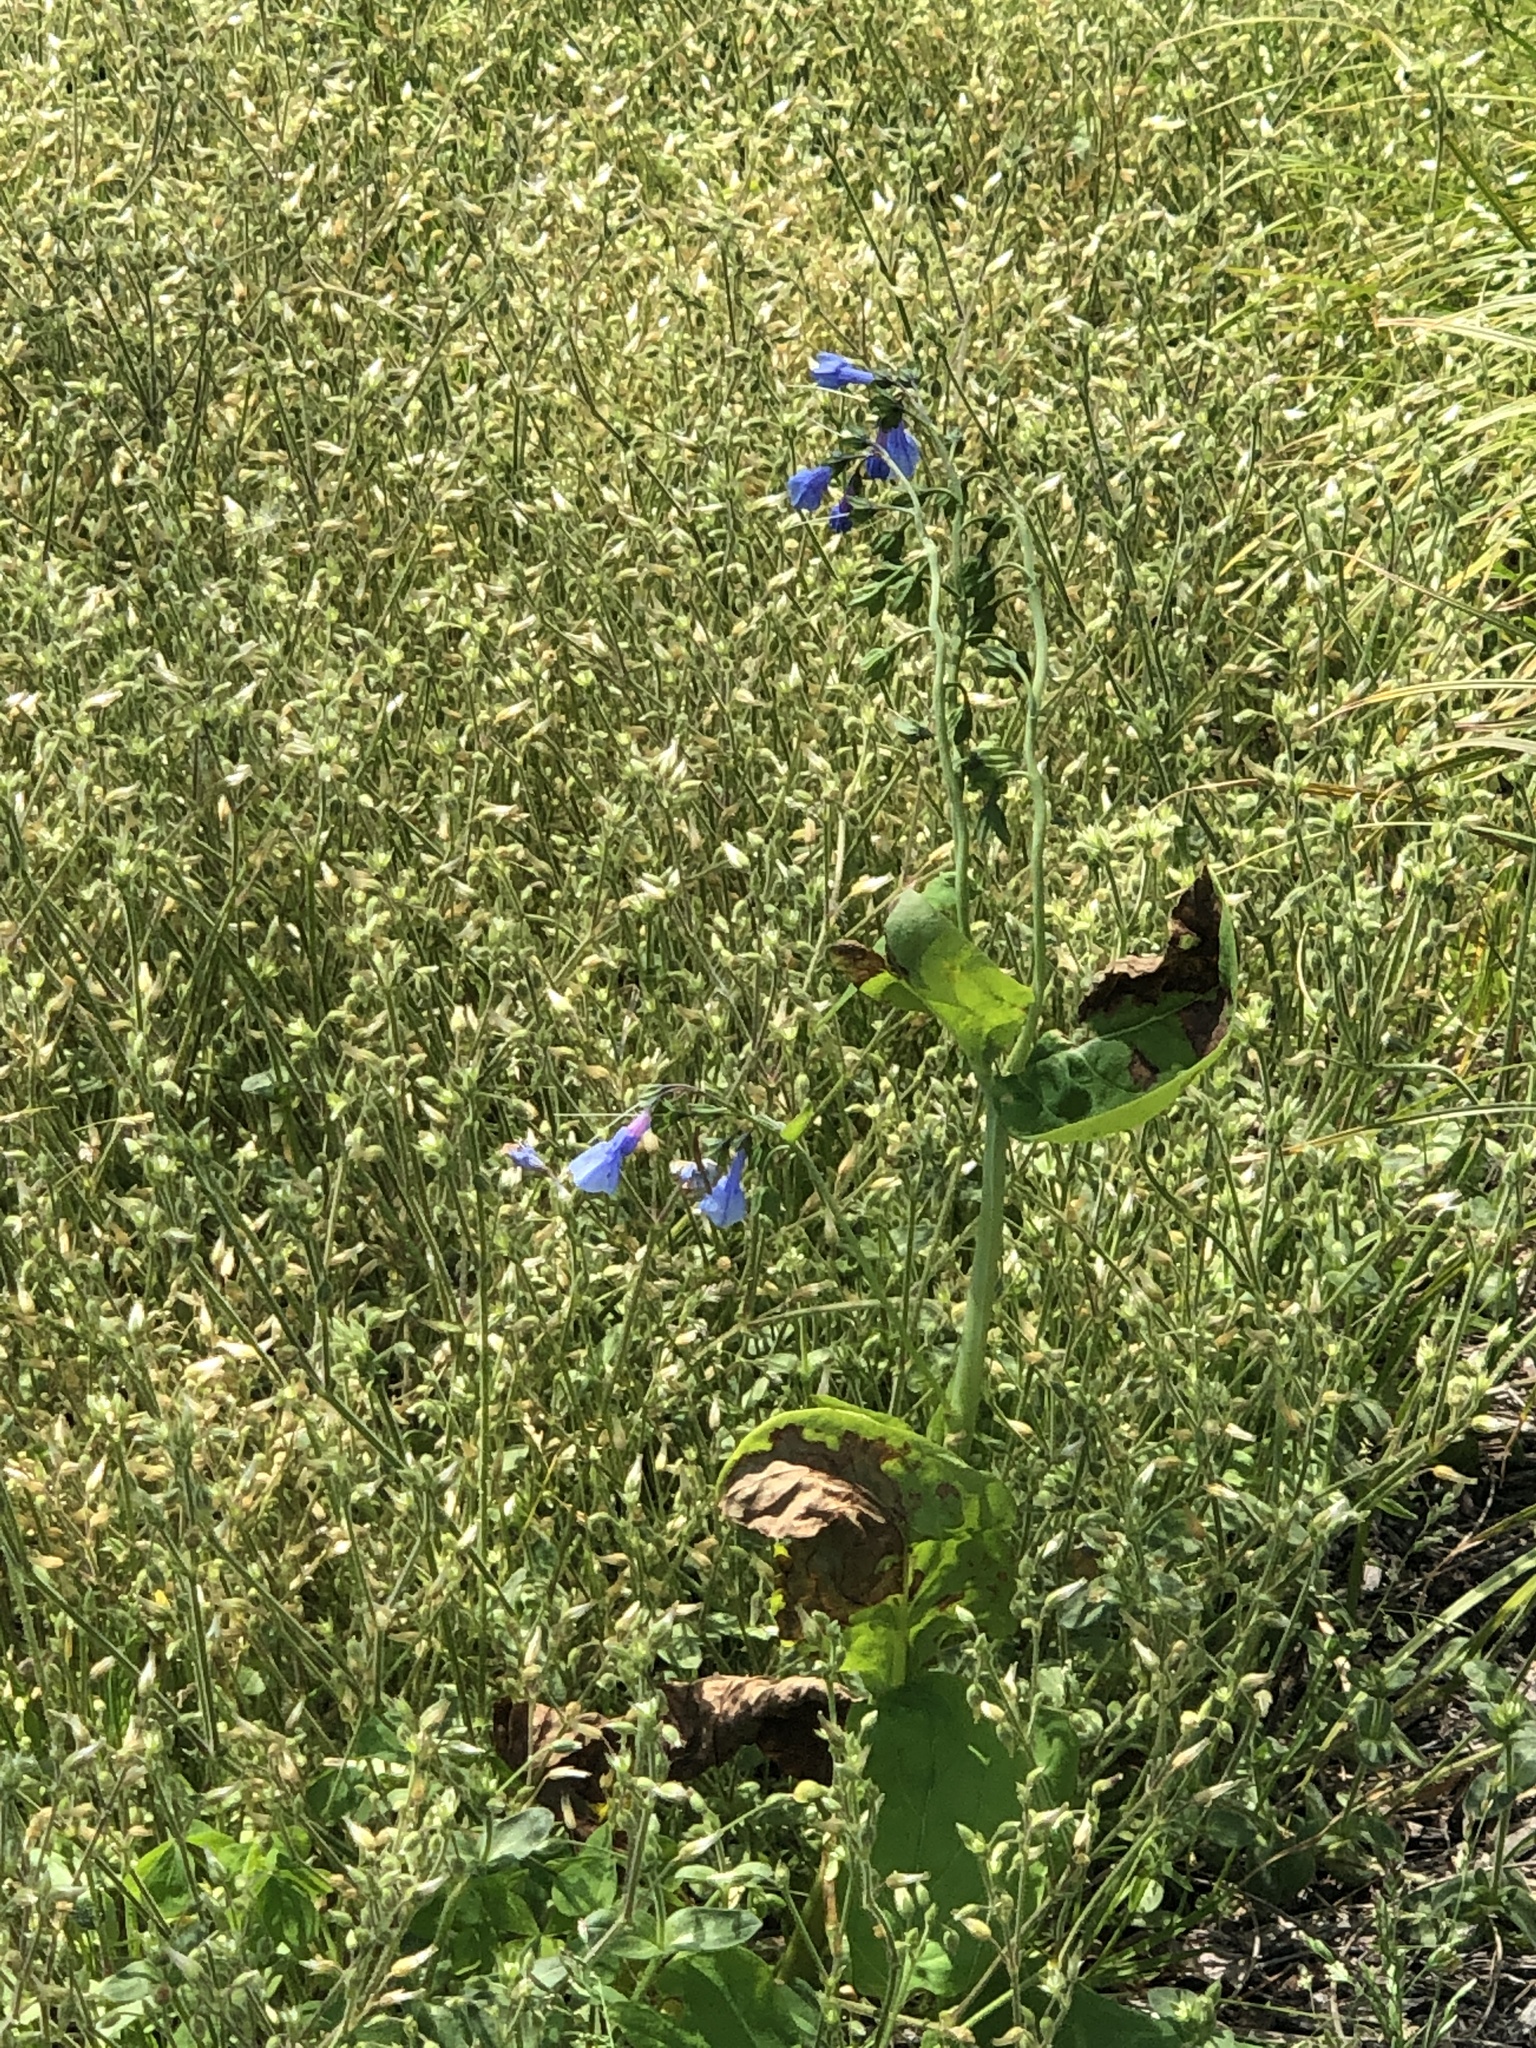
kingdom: Plantae
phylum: Tracheophyta
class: Magnoliopsida
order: Boraginales
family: Boraginaceae
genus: Mertensia
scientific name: Mertensia virginica
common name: Virginia bluebells
